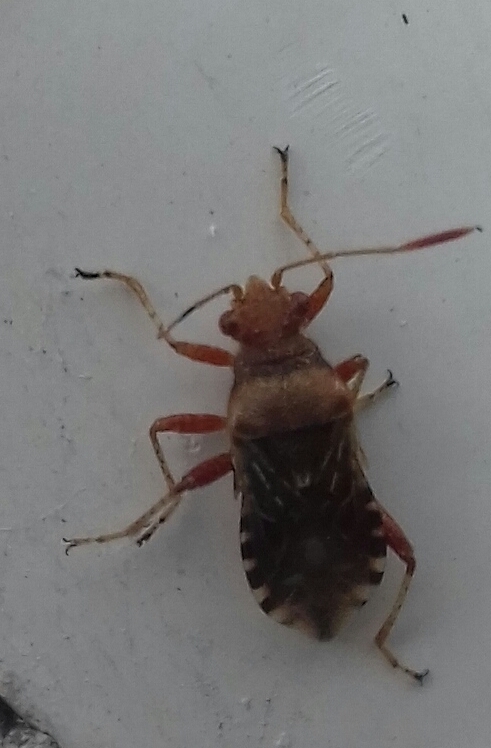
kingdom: Animalia
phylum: Arthropoda
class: Insecta
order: Hemiptera
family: Rhopalidae
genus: Rhopalus
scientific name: Rhopalus subrufus
